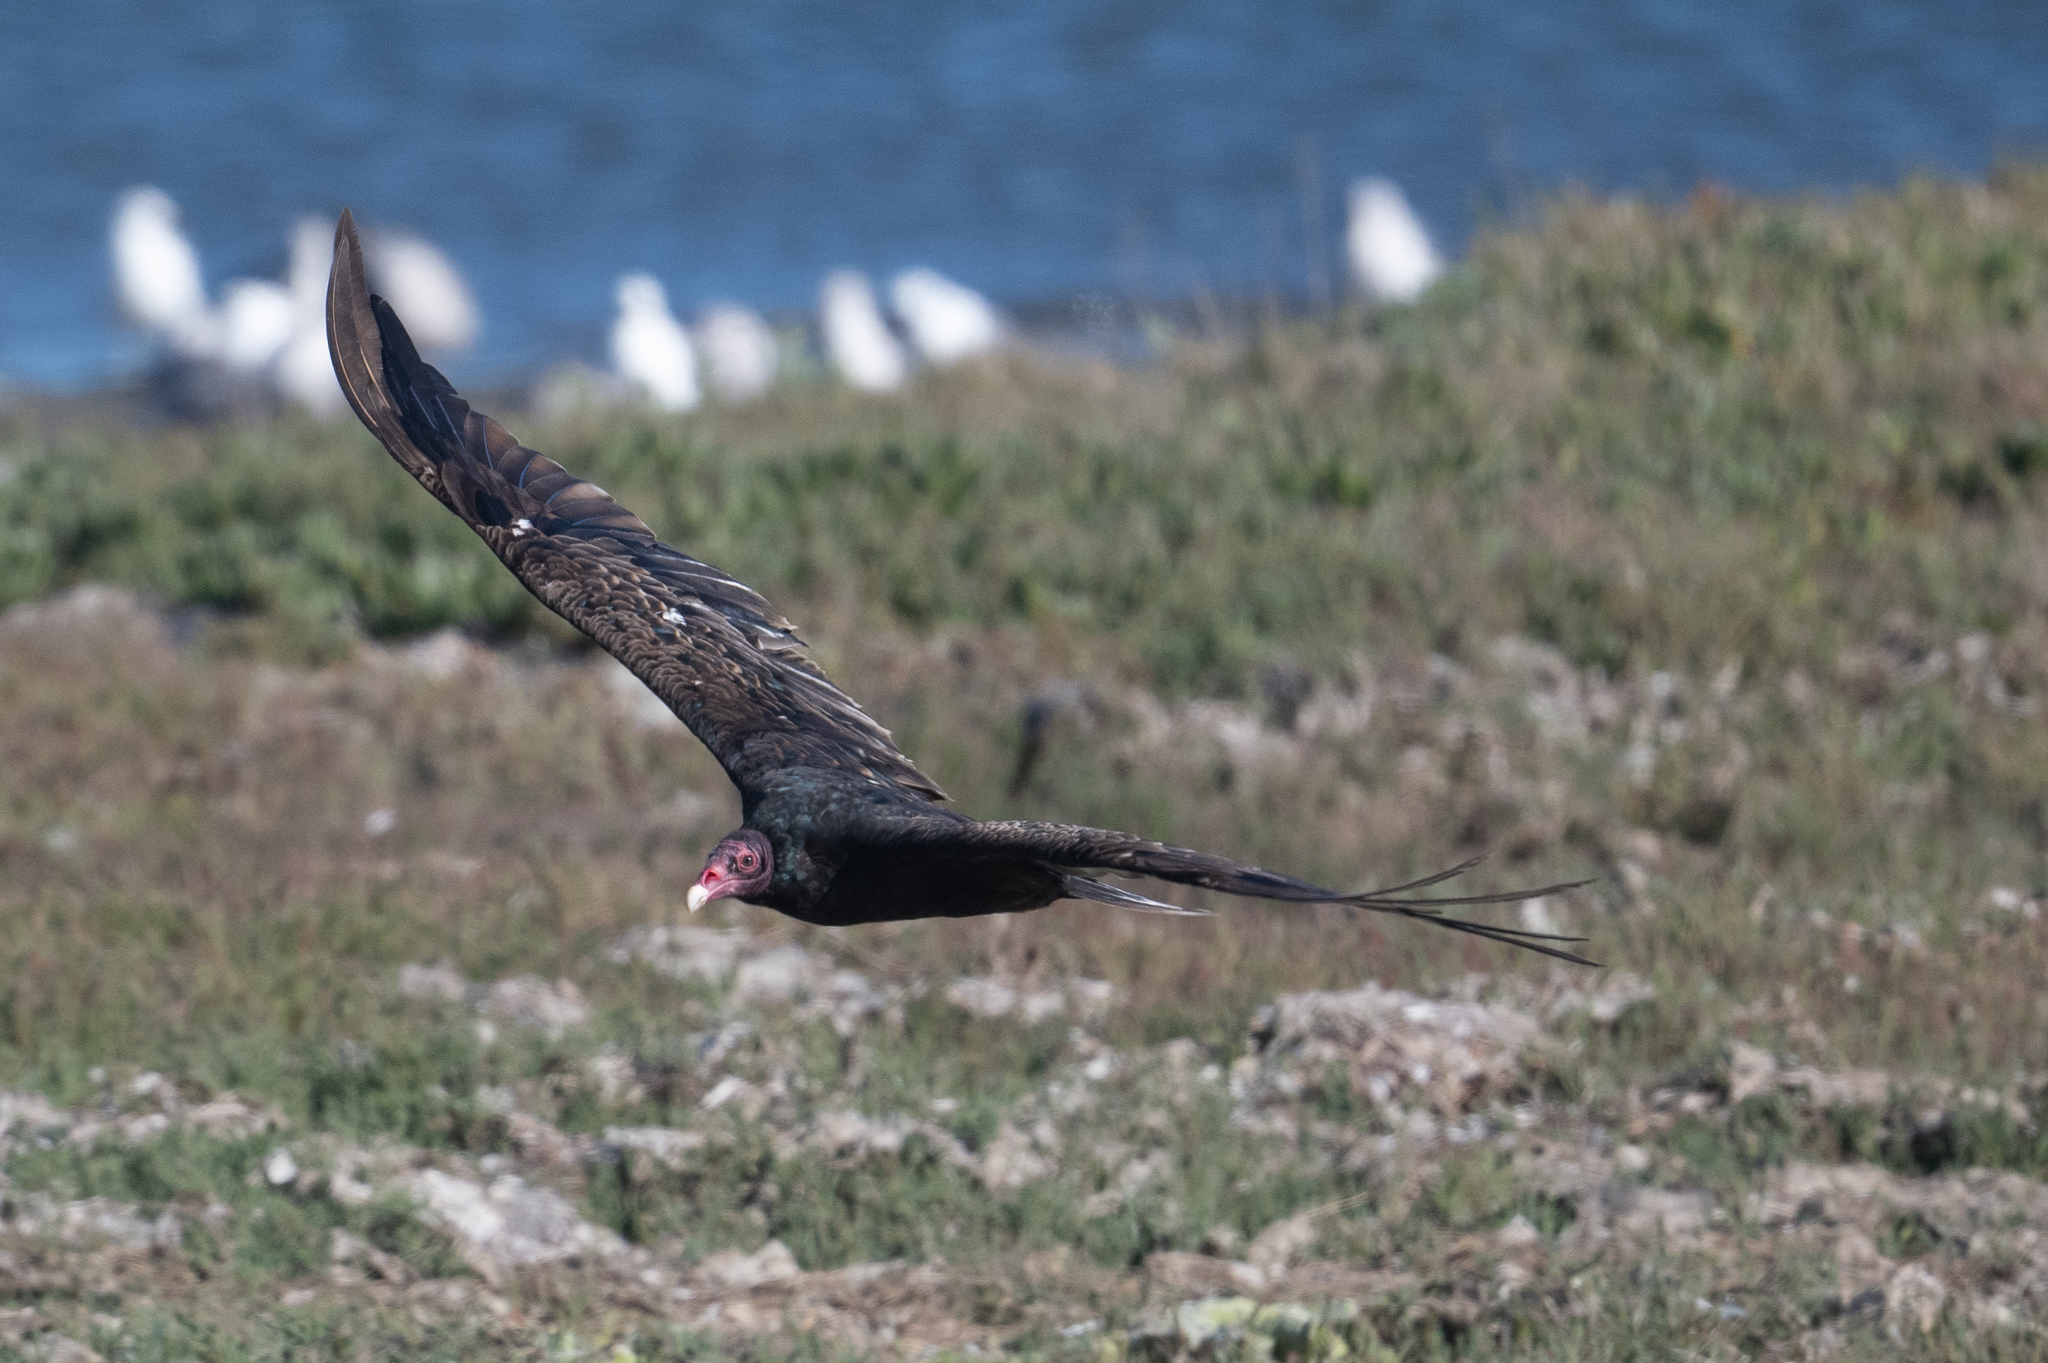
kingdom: Animalia
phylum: Chordata
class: Aves
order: Accipitriformes
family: Cathartidae
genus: Cathartes
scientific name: Cathartes aura
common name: Turkey vulture
